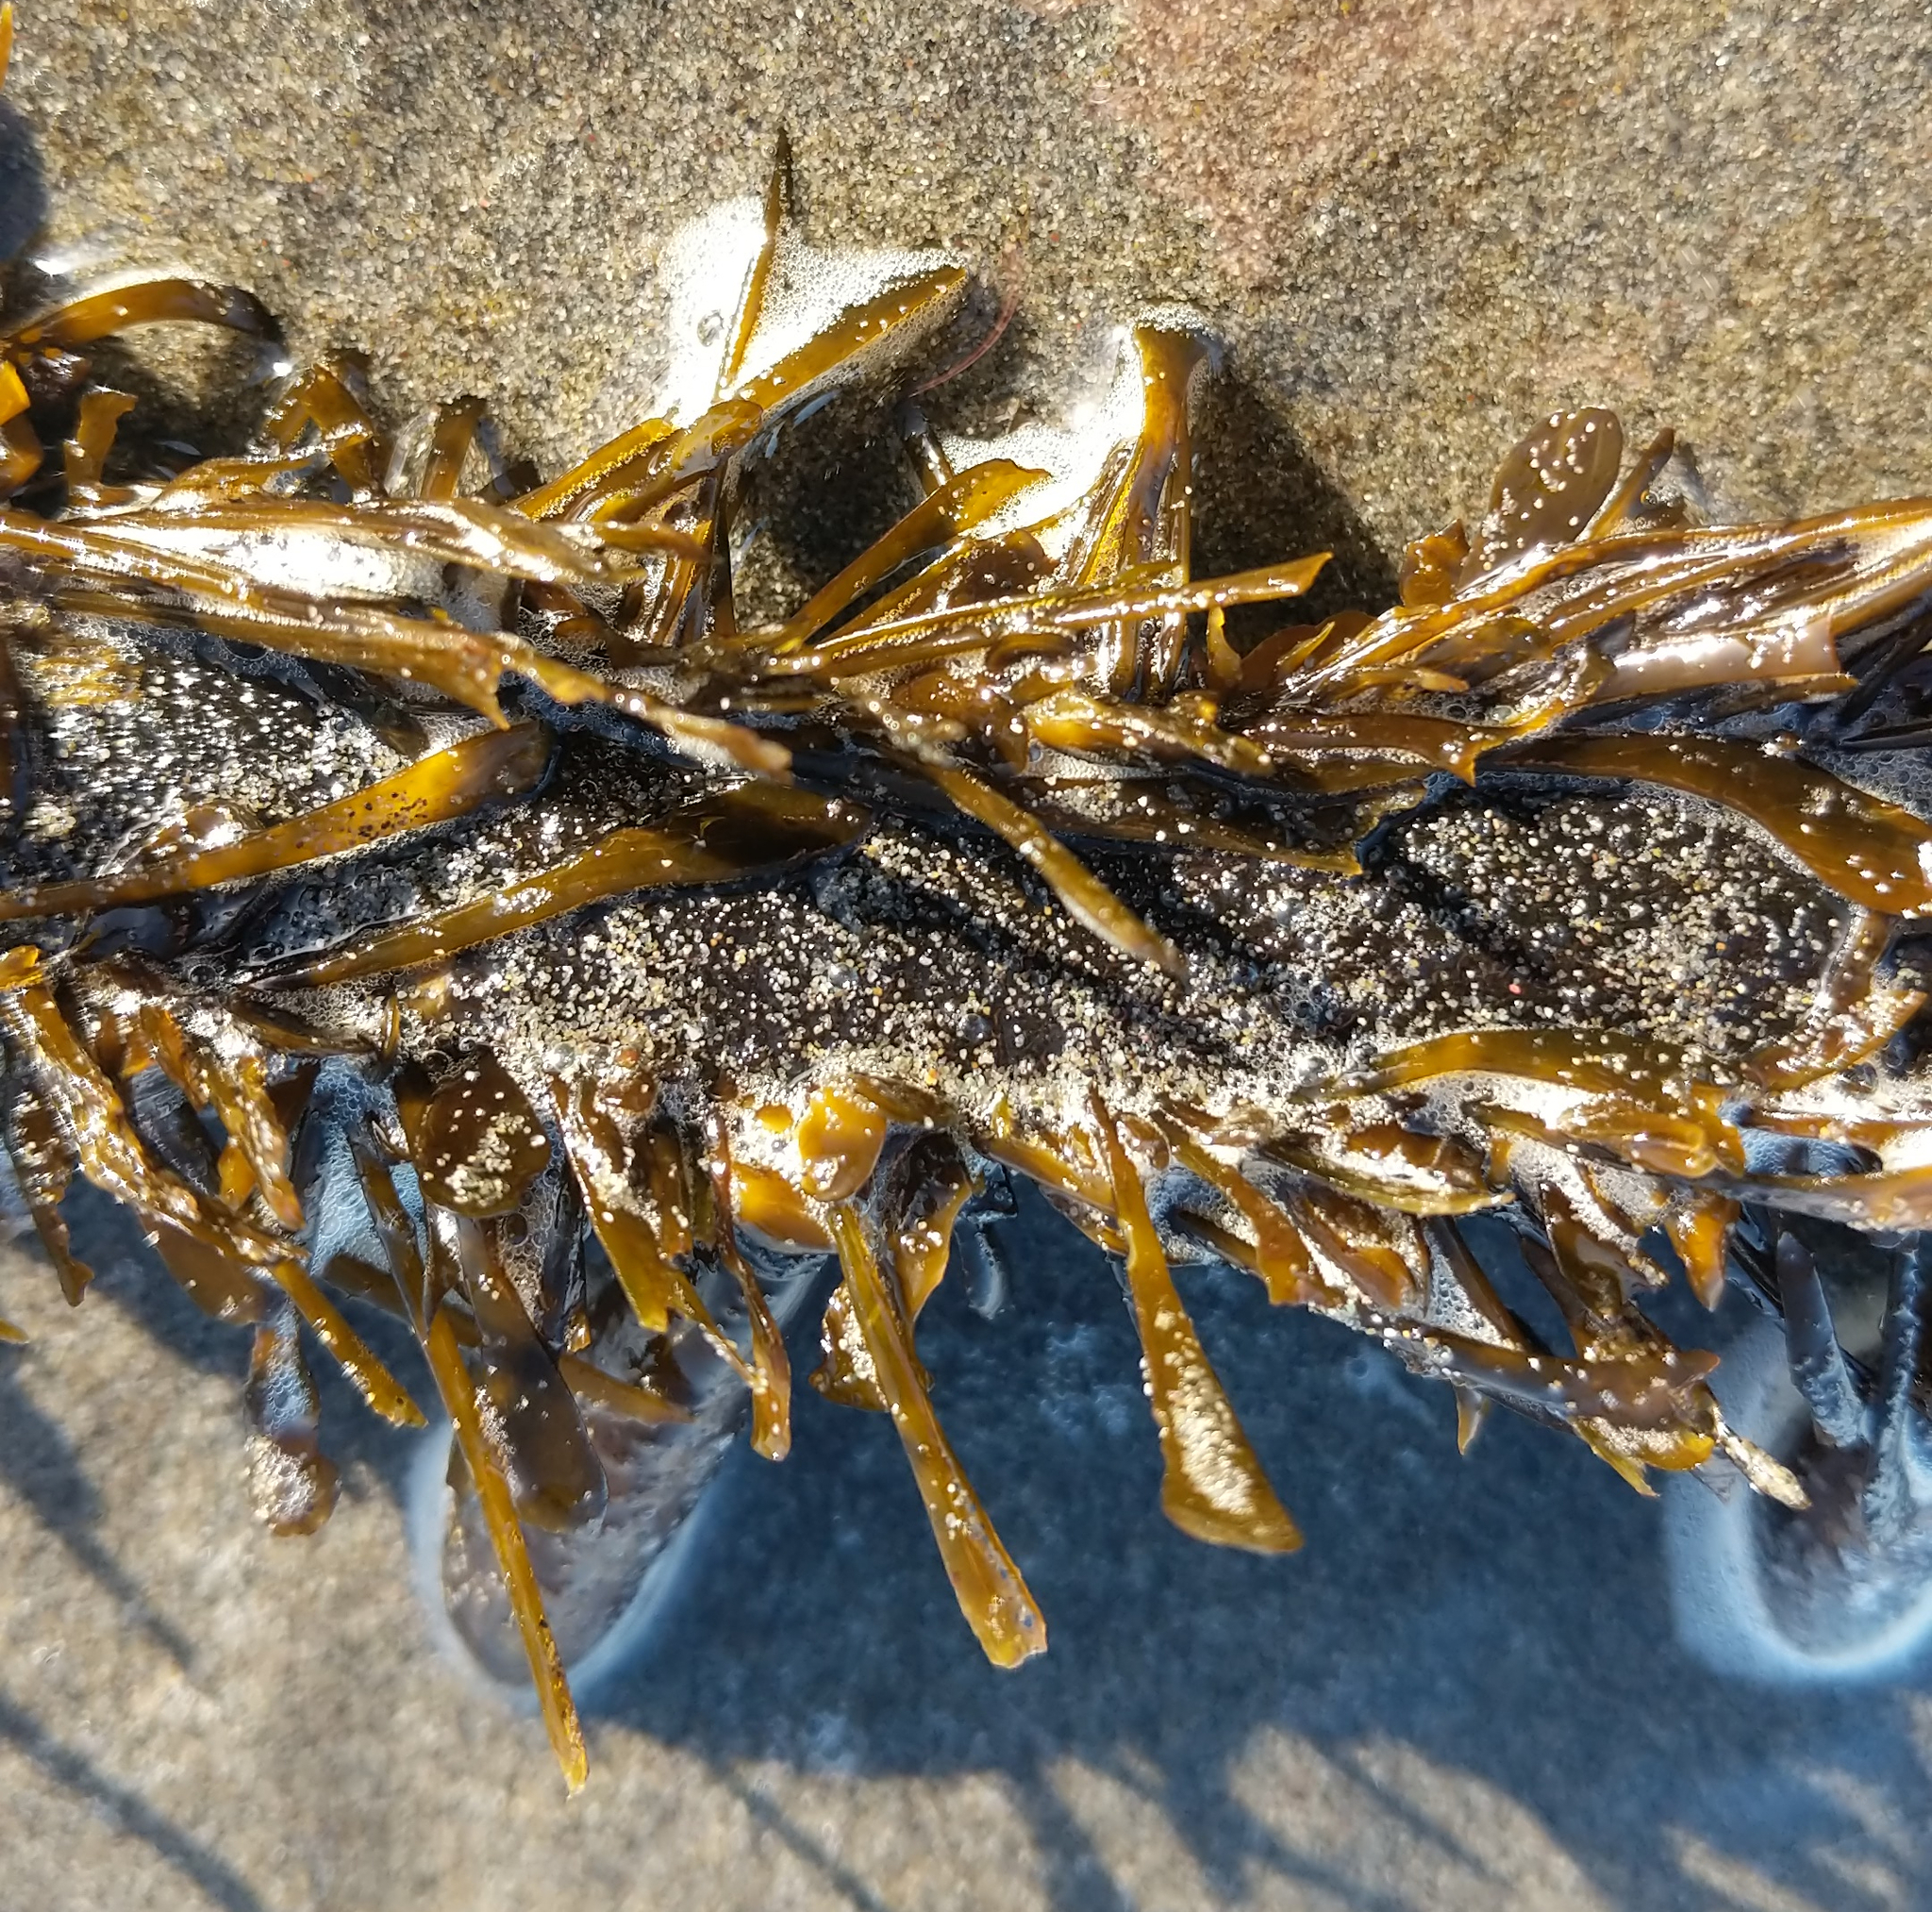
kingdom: Chromista
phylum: Ochrophyta
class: Phaeophyceae
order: Laminariales
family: Lessoniaceae
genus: Egregia
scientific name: Egregia menziesii
